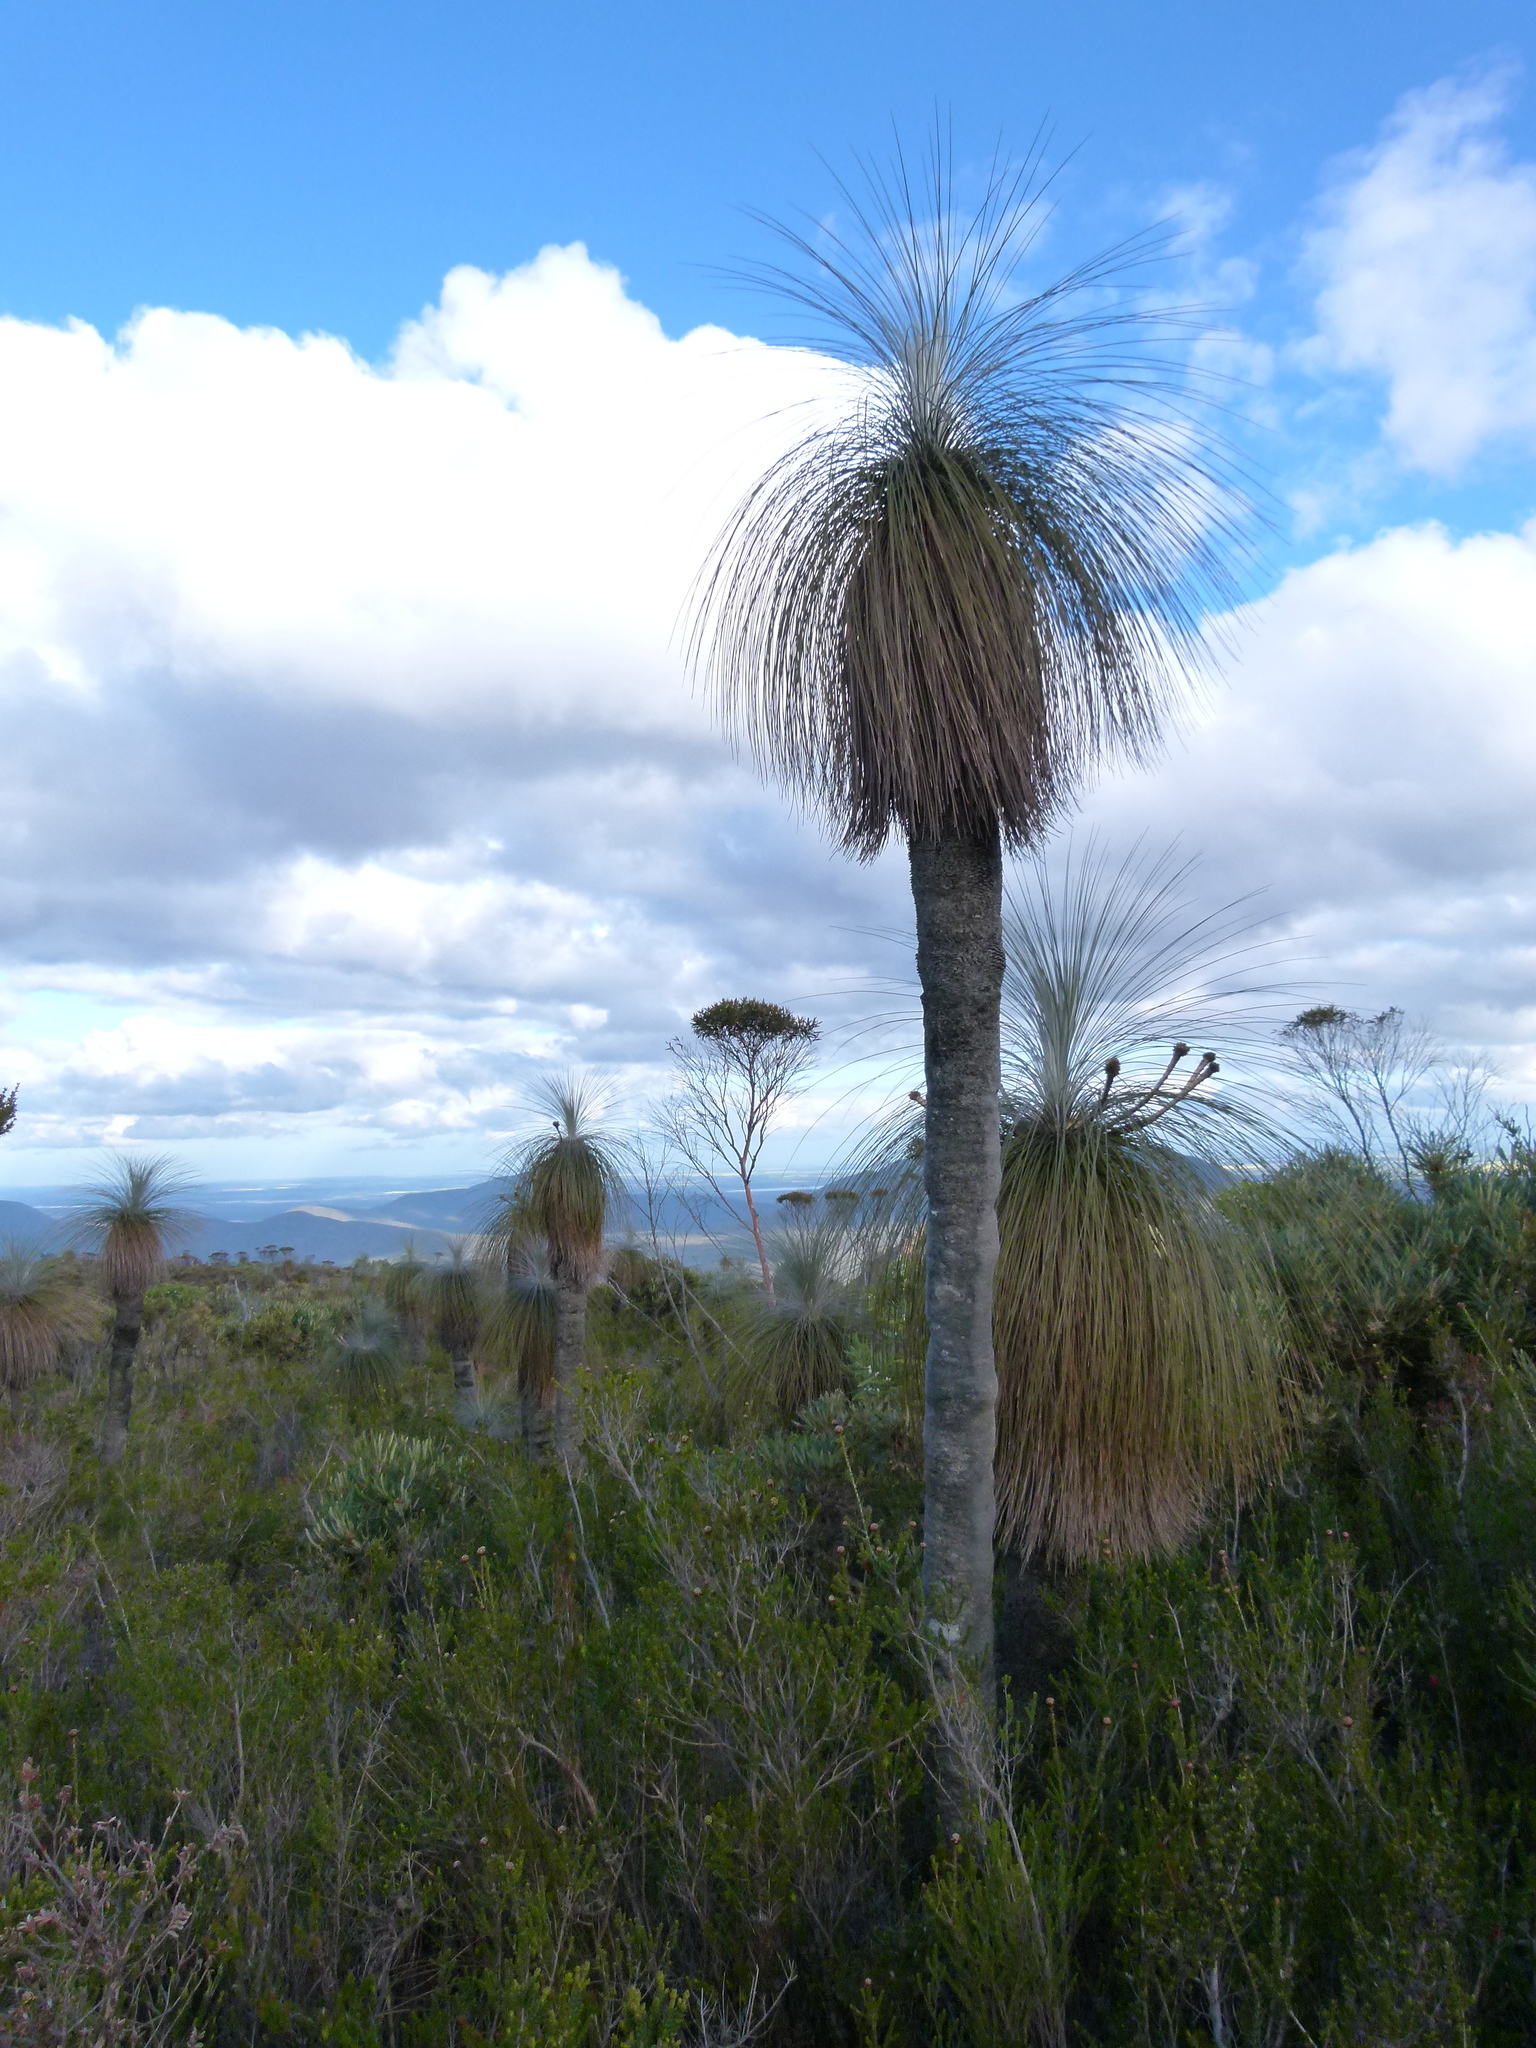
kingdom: Plantae
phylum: Tracheophyta
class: Liliopsida
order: Arecales
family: Dasypogonaceae
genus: Kingia
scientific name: Kingia australis
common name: Black gin
